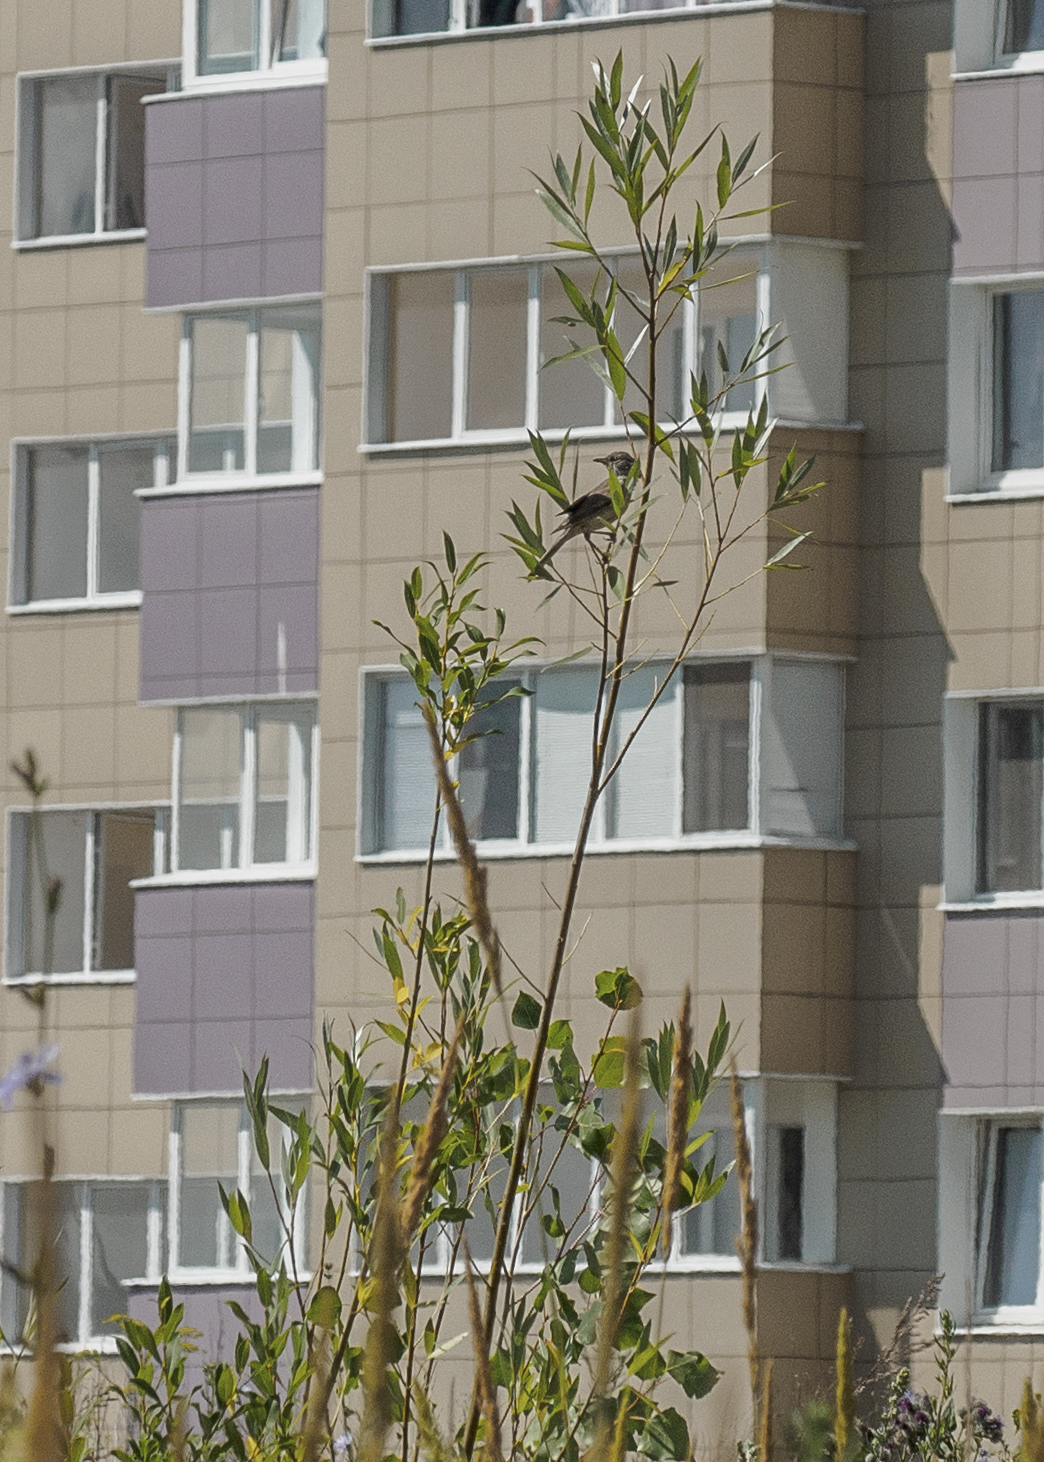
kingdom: Animalia
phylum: Chordata
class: Aves
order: Passeriformes
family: Sylviidae
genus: Sylvia
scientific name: Sylvia communis
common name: Common whitethroat
